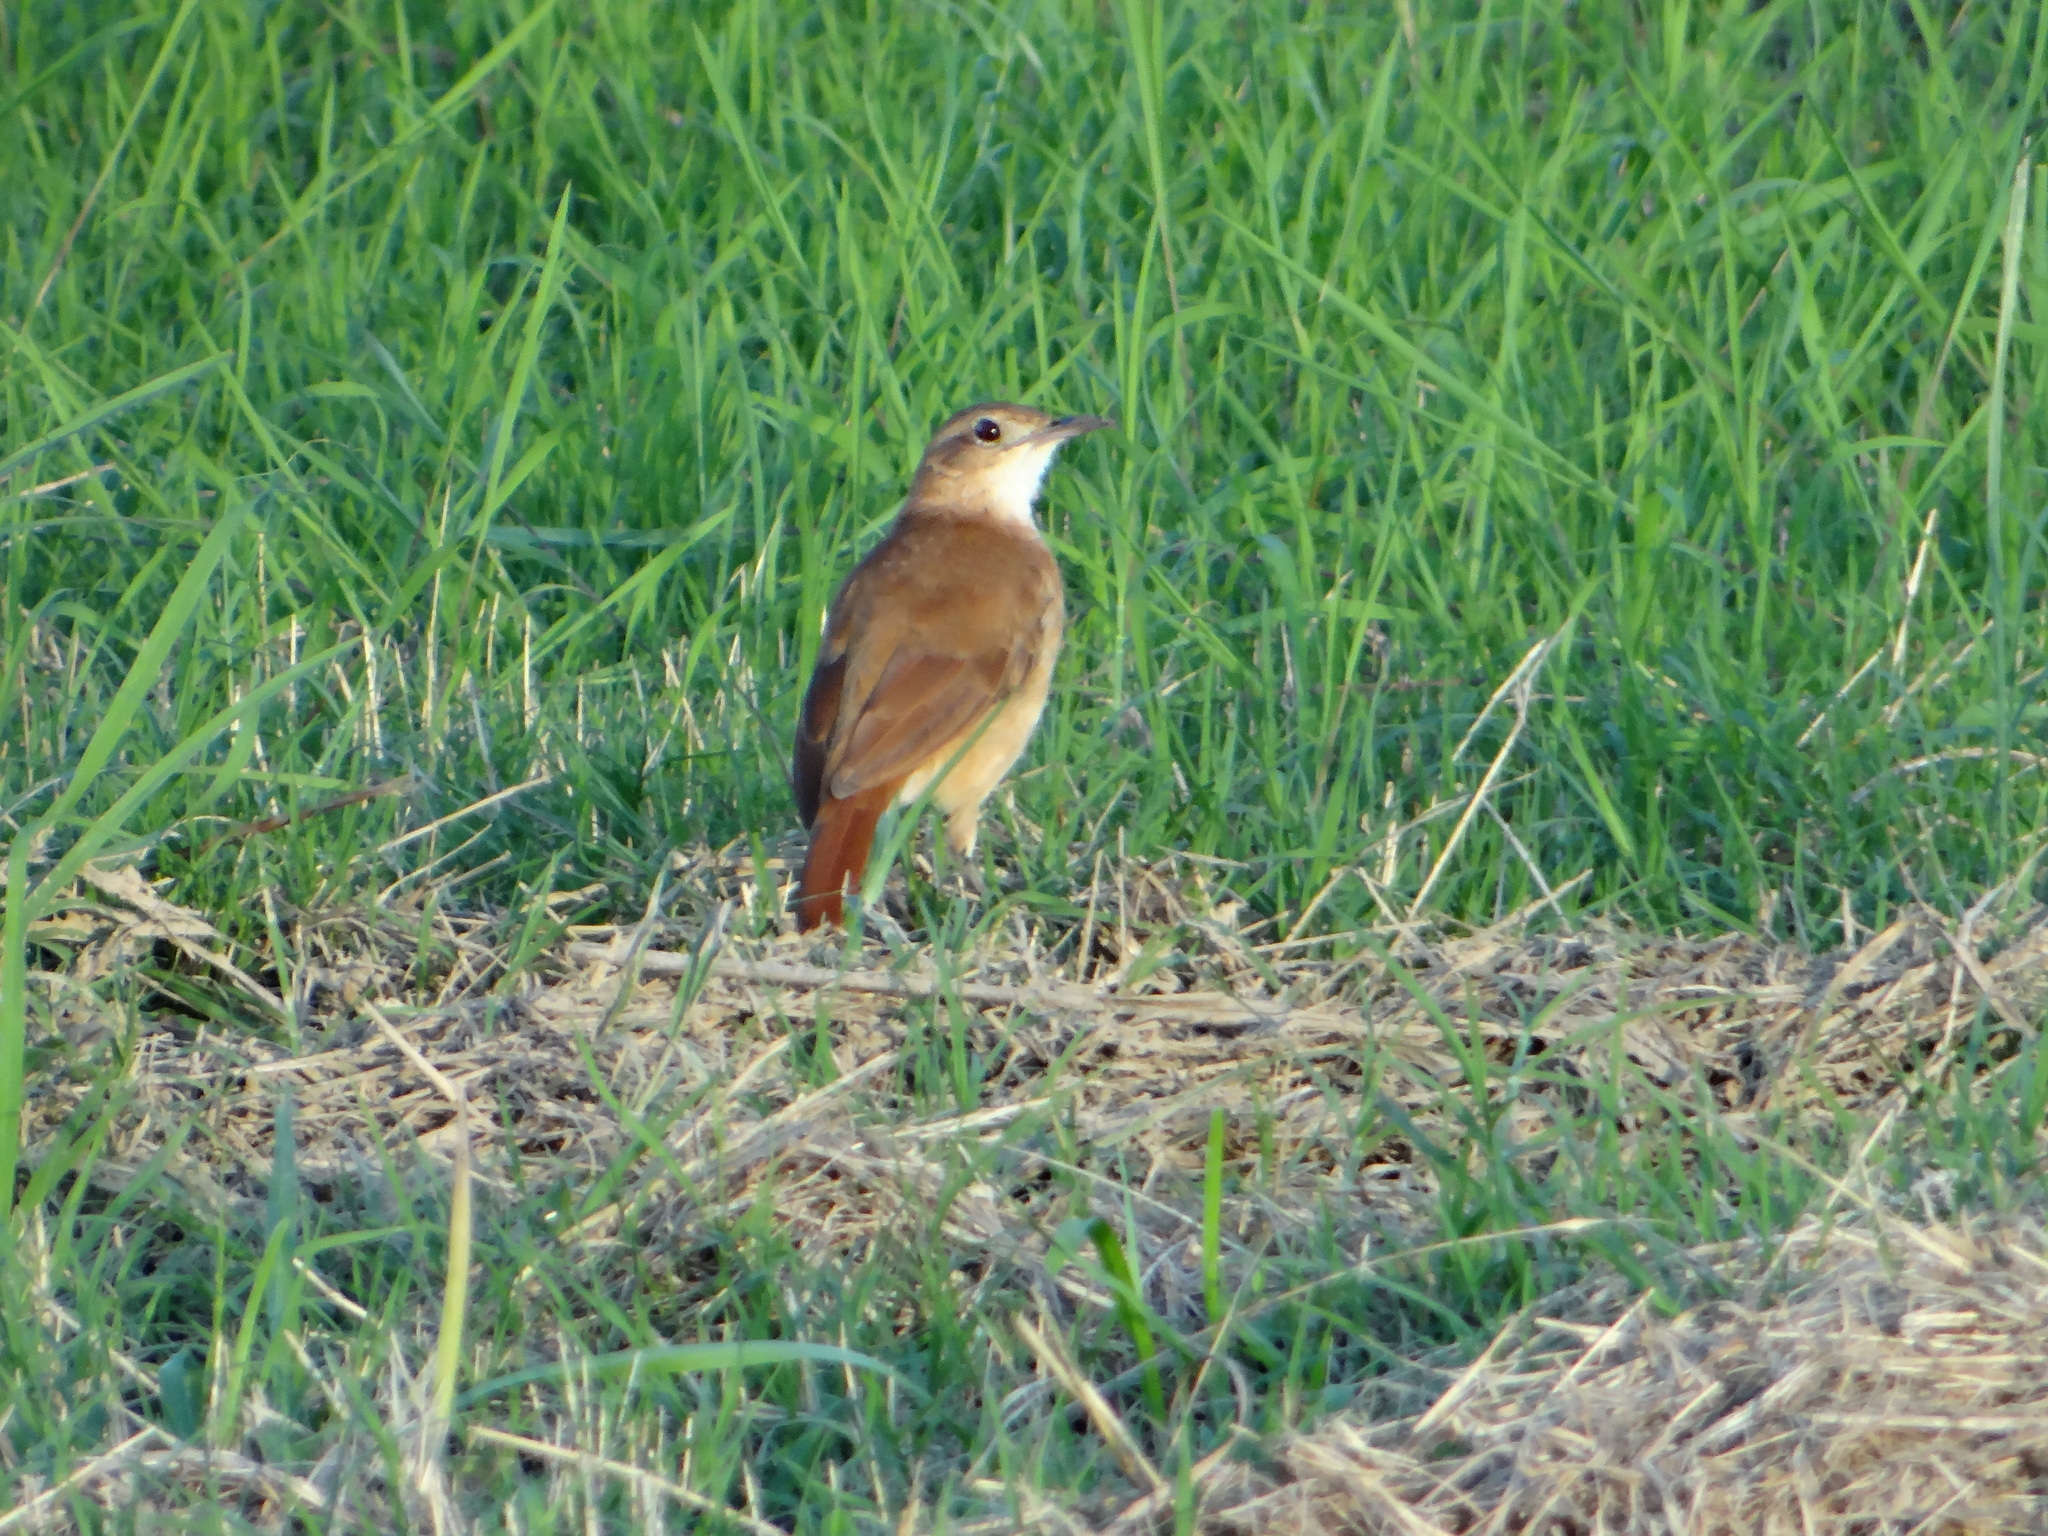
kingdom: Animalia
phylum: Chordata
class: Aves
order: Passeriformes
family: Furnariidae
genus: Furnarius
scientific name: Furnarius rufus
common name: Rufous hornero
